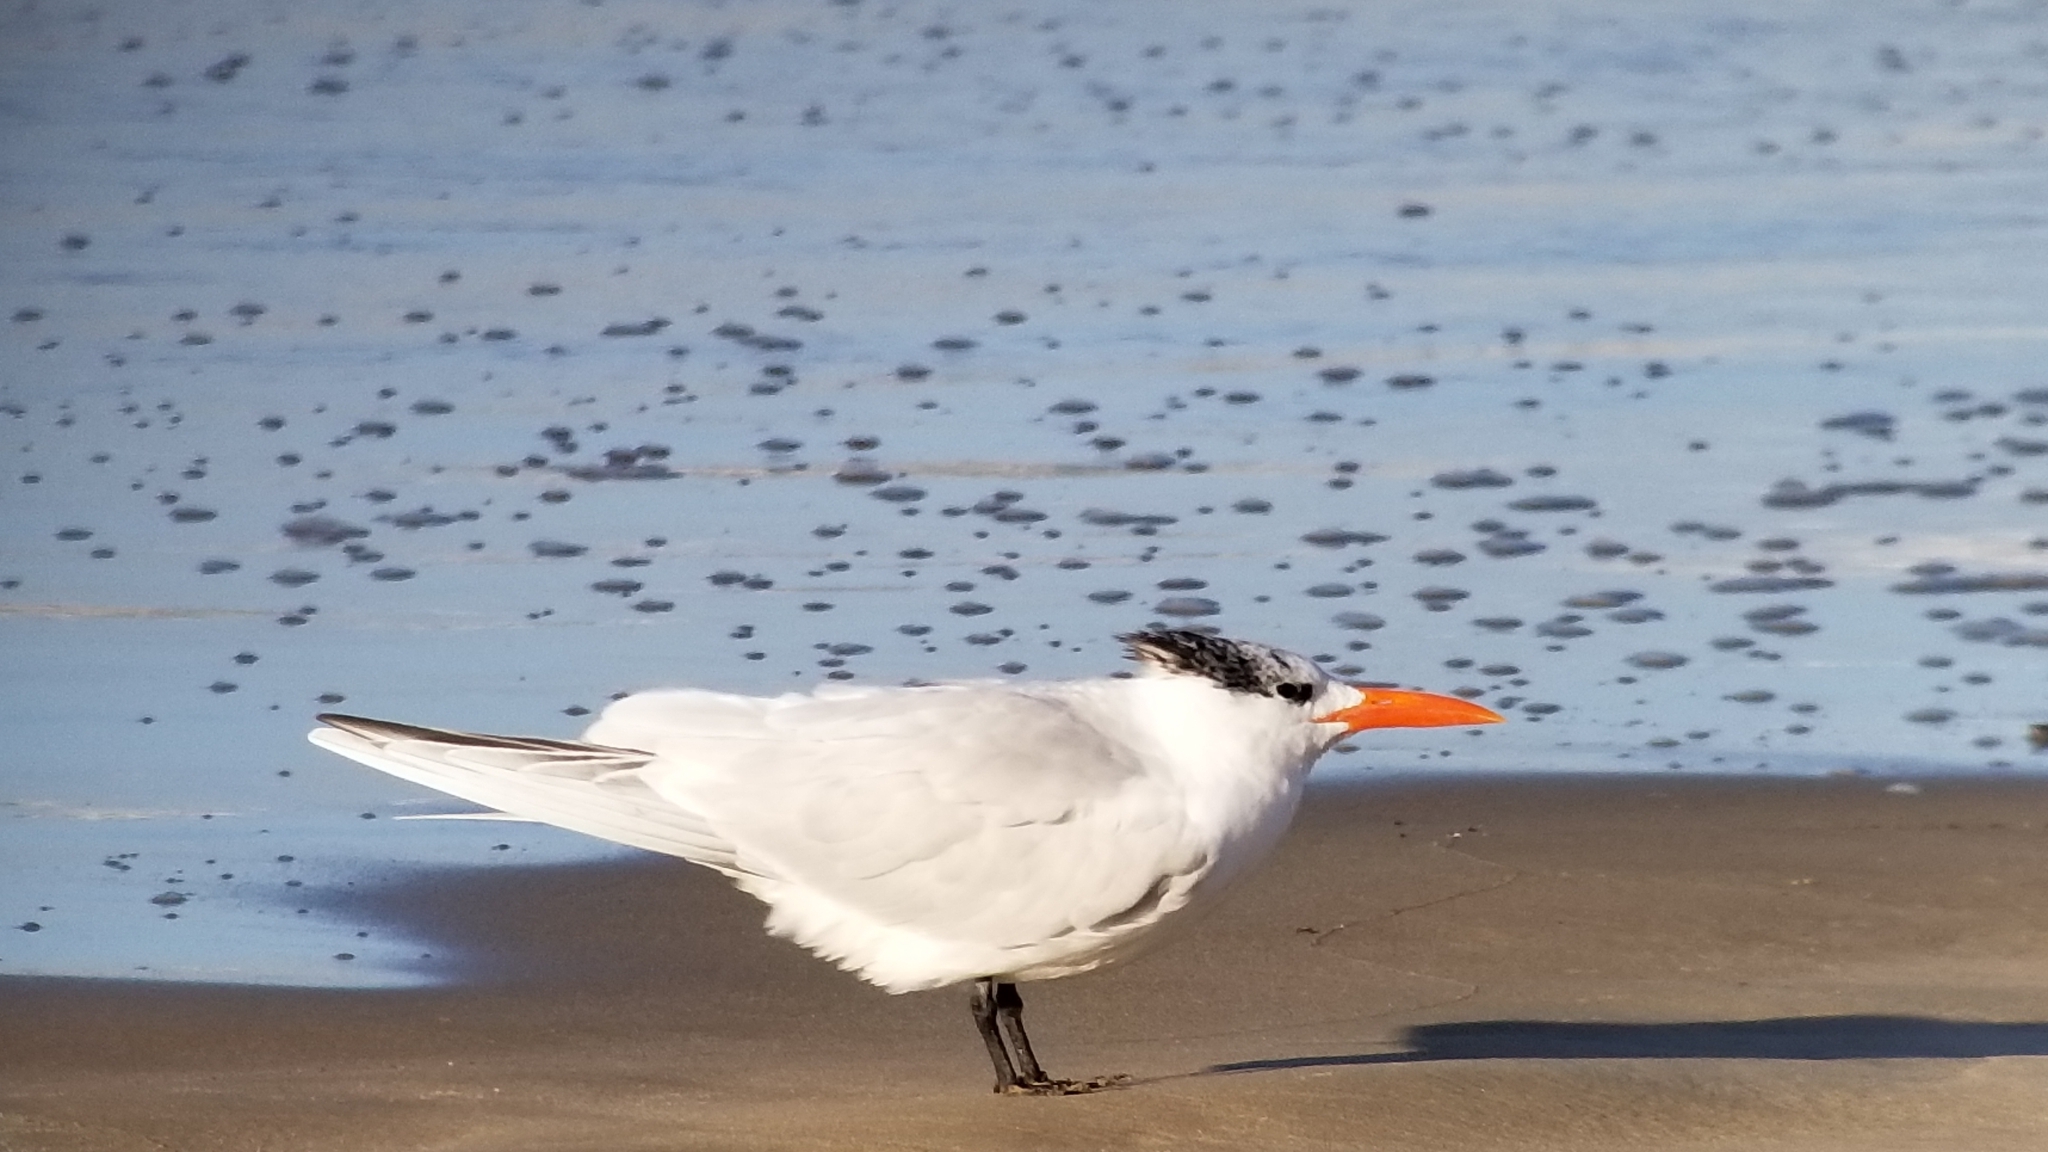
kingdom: Animalia
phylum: Chordata
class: Aves
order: Charadriiformes
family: Laridae
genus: Thalasseus
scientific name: Thalasseus maximus
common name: Royal tern
